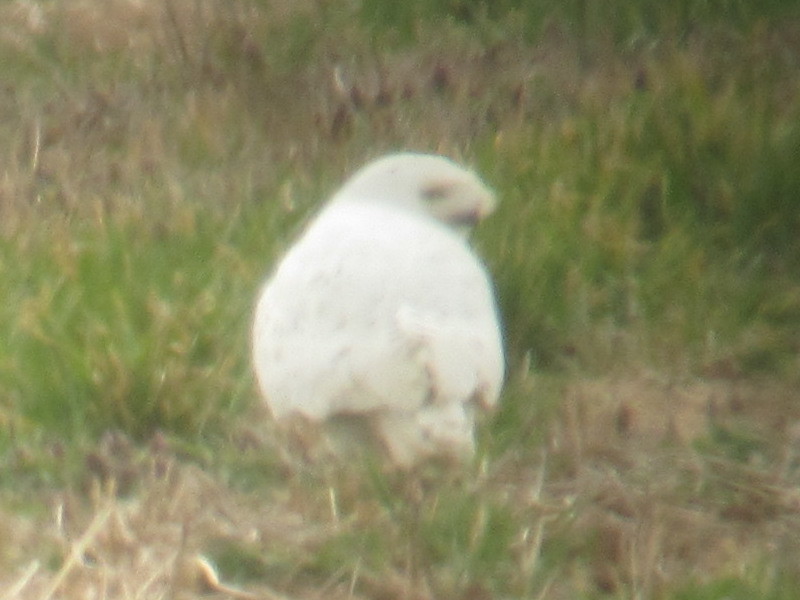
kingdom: Animalia
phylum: Chordata
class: Aves
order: Strigiformes
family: Strigidae
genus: Bubo
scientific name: Bubo scandiacus
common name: Snowy owl
